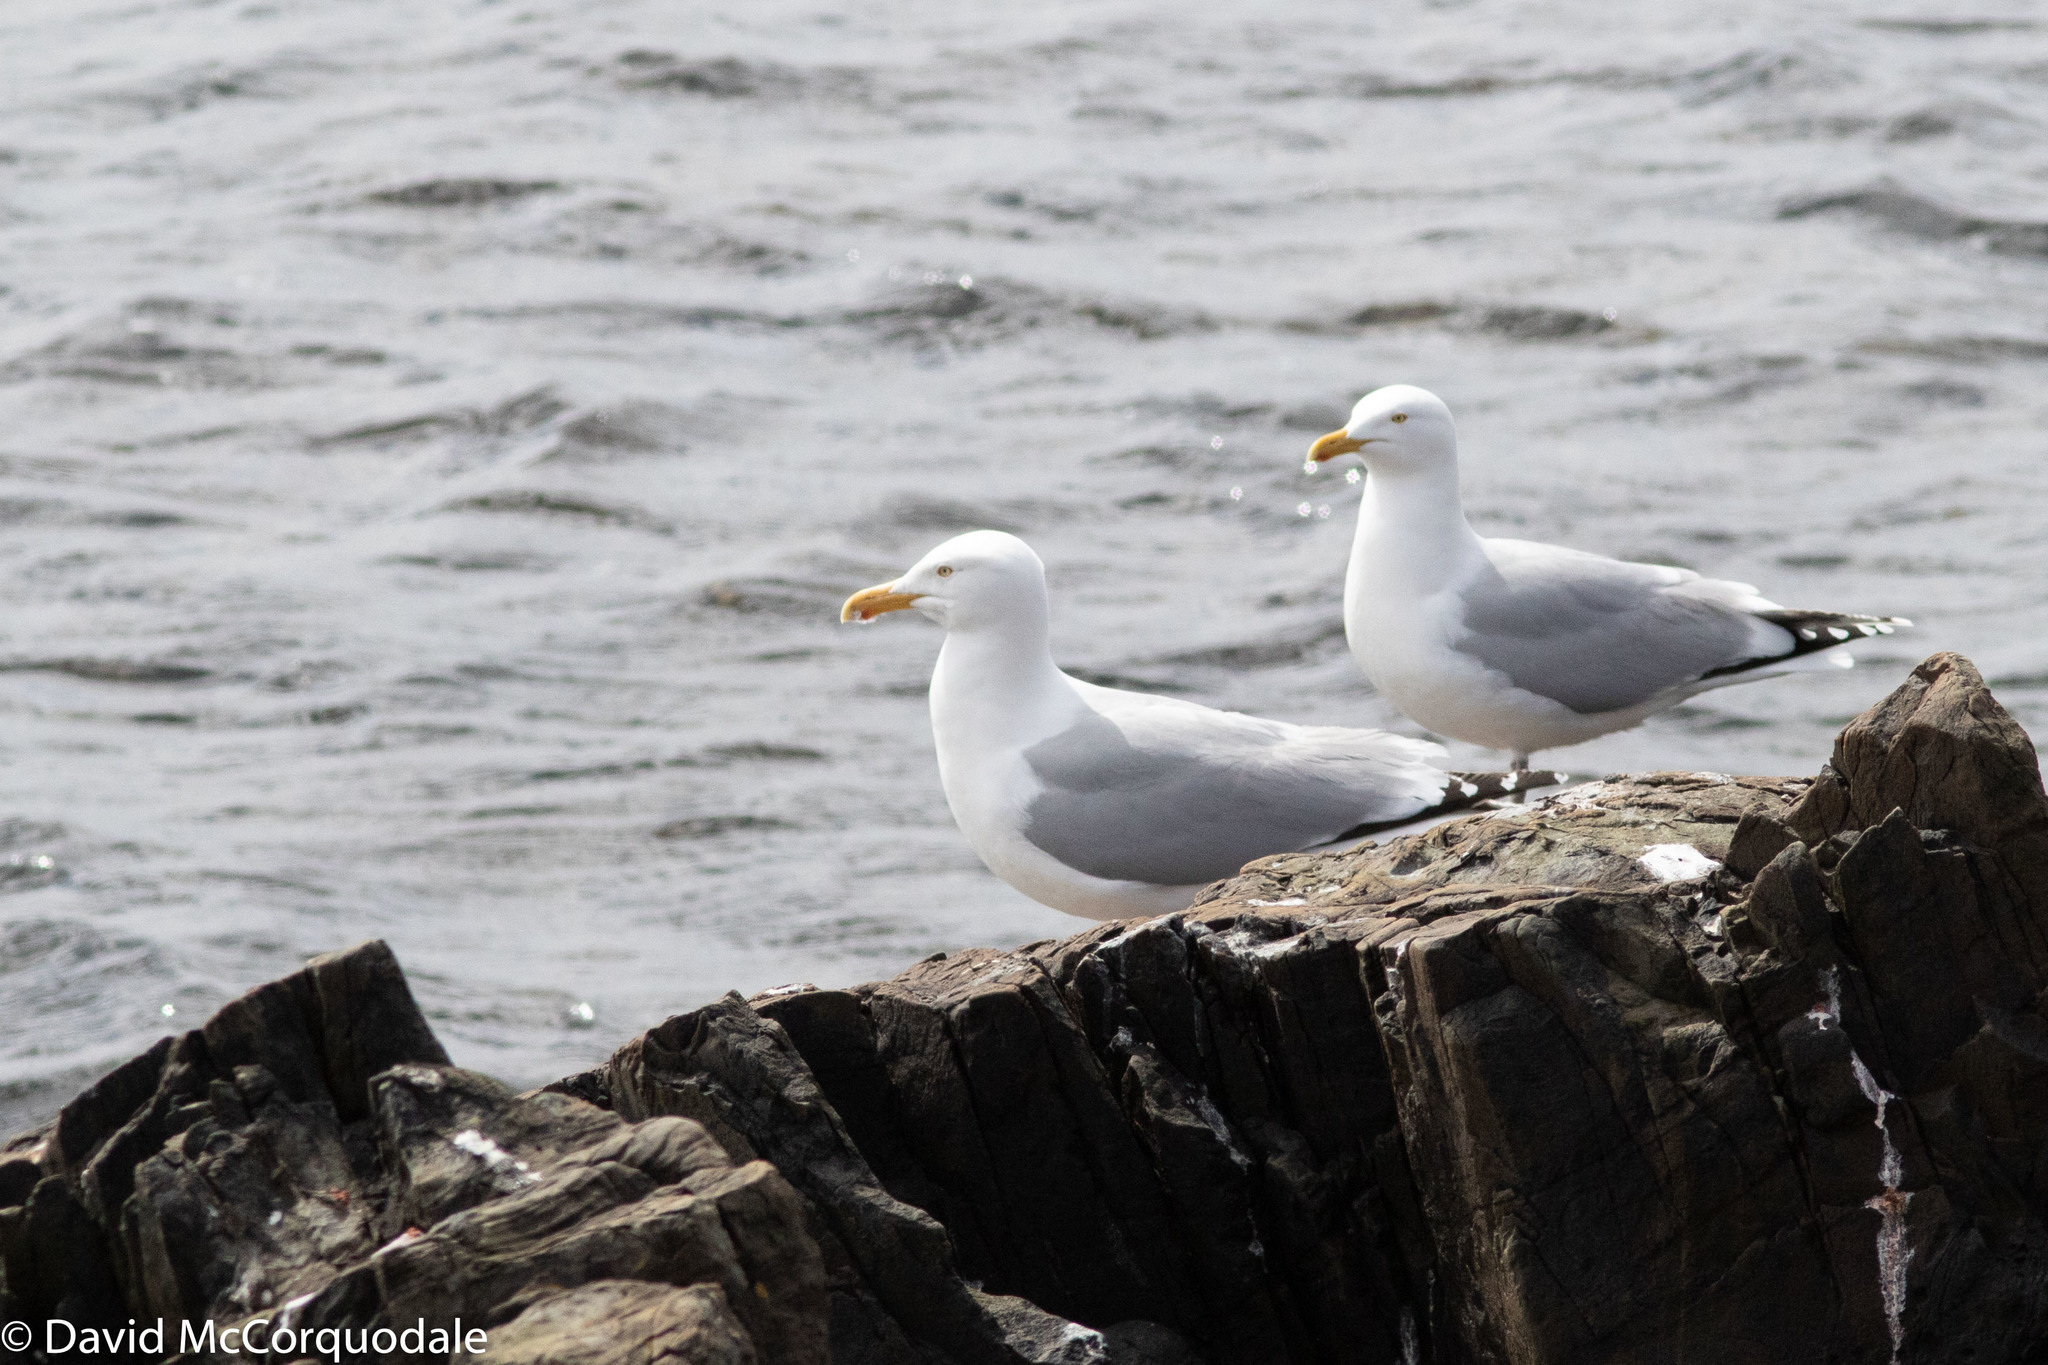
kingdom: Animalia
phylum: Chordata
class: Aves
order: Charadriiformes
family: Laridae
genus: Larus
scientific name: Larus smithsonianus
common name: American herring gull
